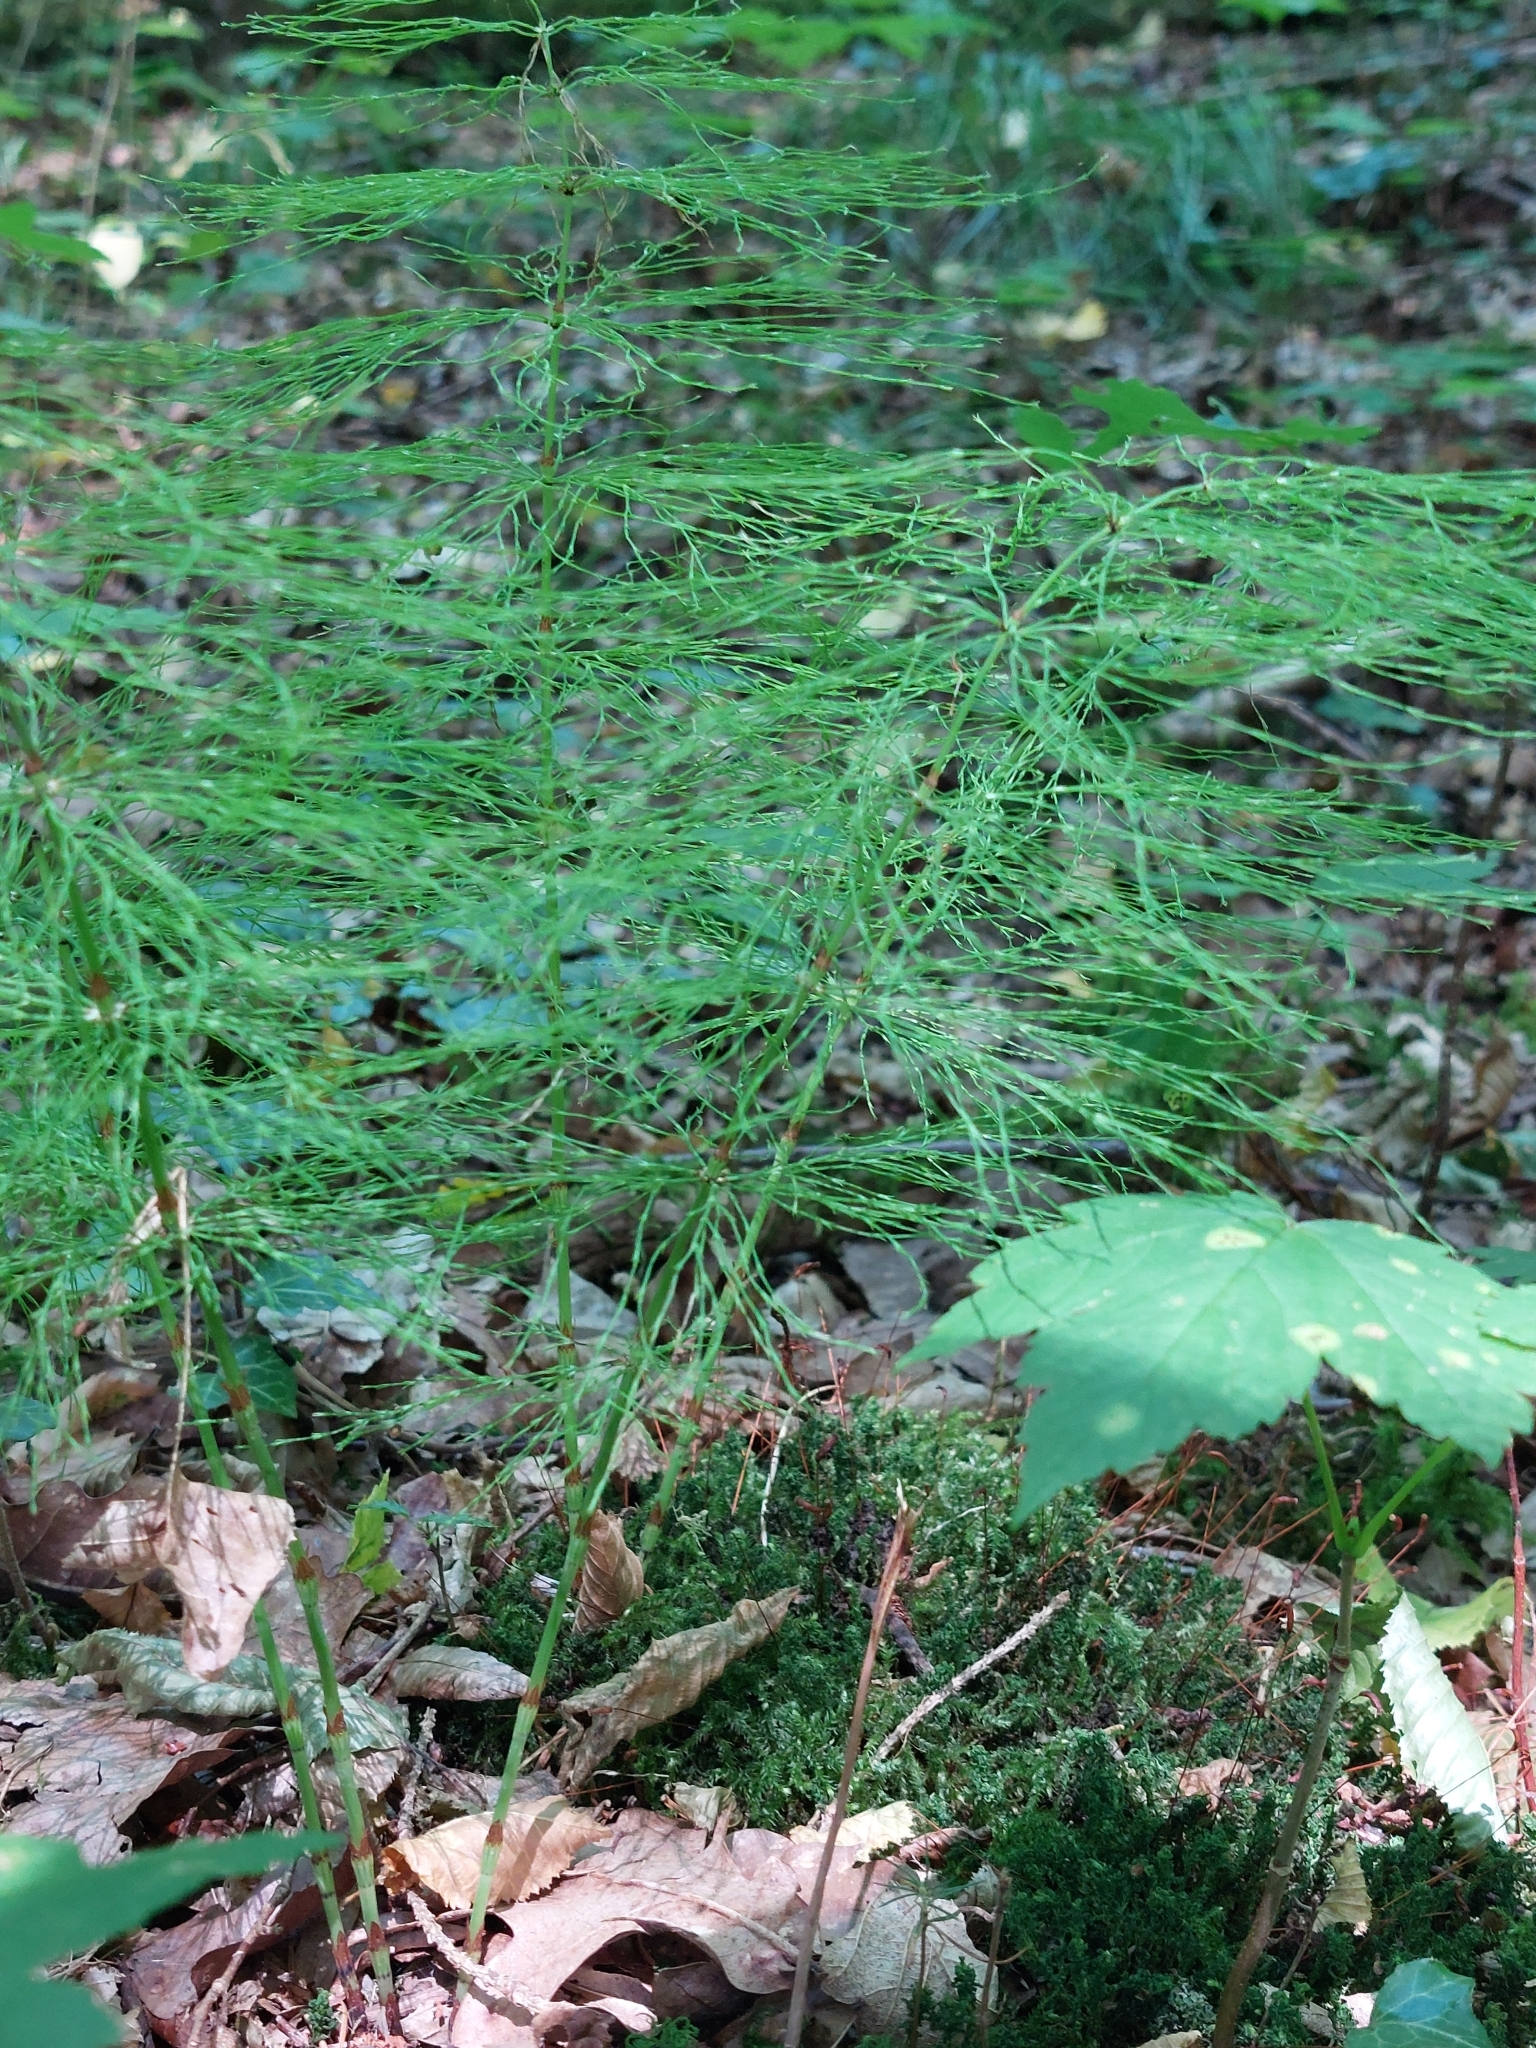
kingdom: Plantae
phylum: Tracheophyta
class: Polypodiopsida
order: Equisetales
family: Equisetaceae
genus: Equisetum
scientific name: Equisetum sylvaticum
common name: Wood horsetail
